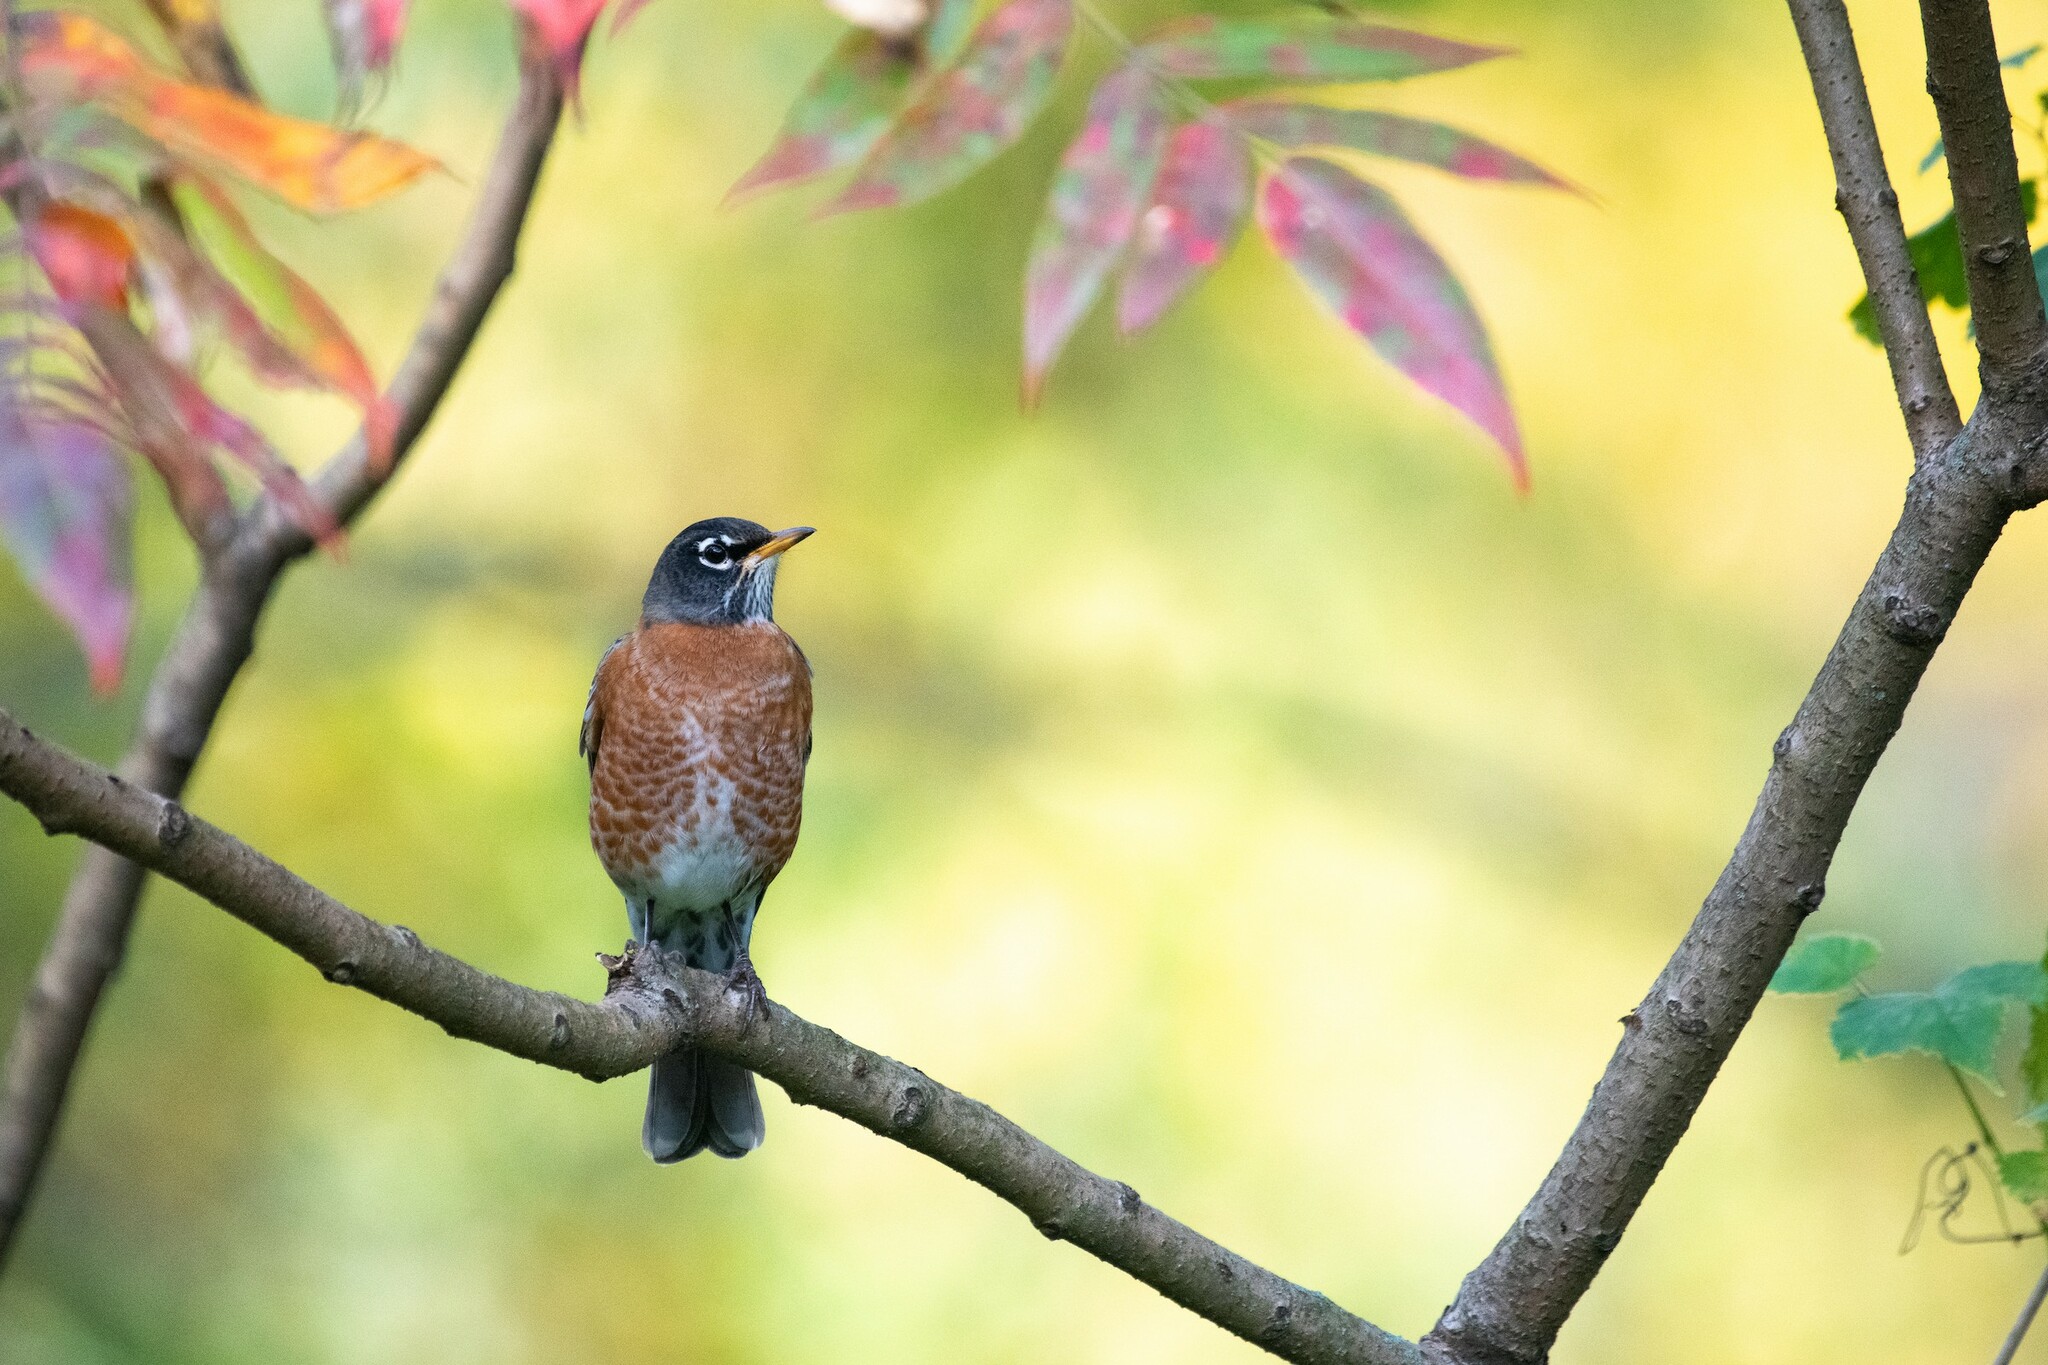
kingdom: Animalia
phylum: Chordata
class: Aves
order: Passeriformes
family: Turdidae
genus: Turdus
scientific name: Turdus migratorius
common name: American robin
